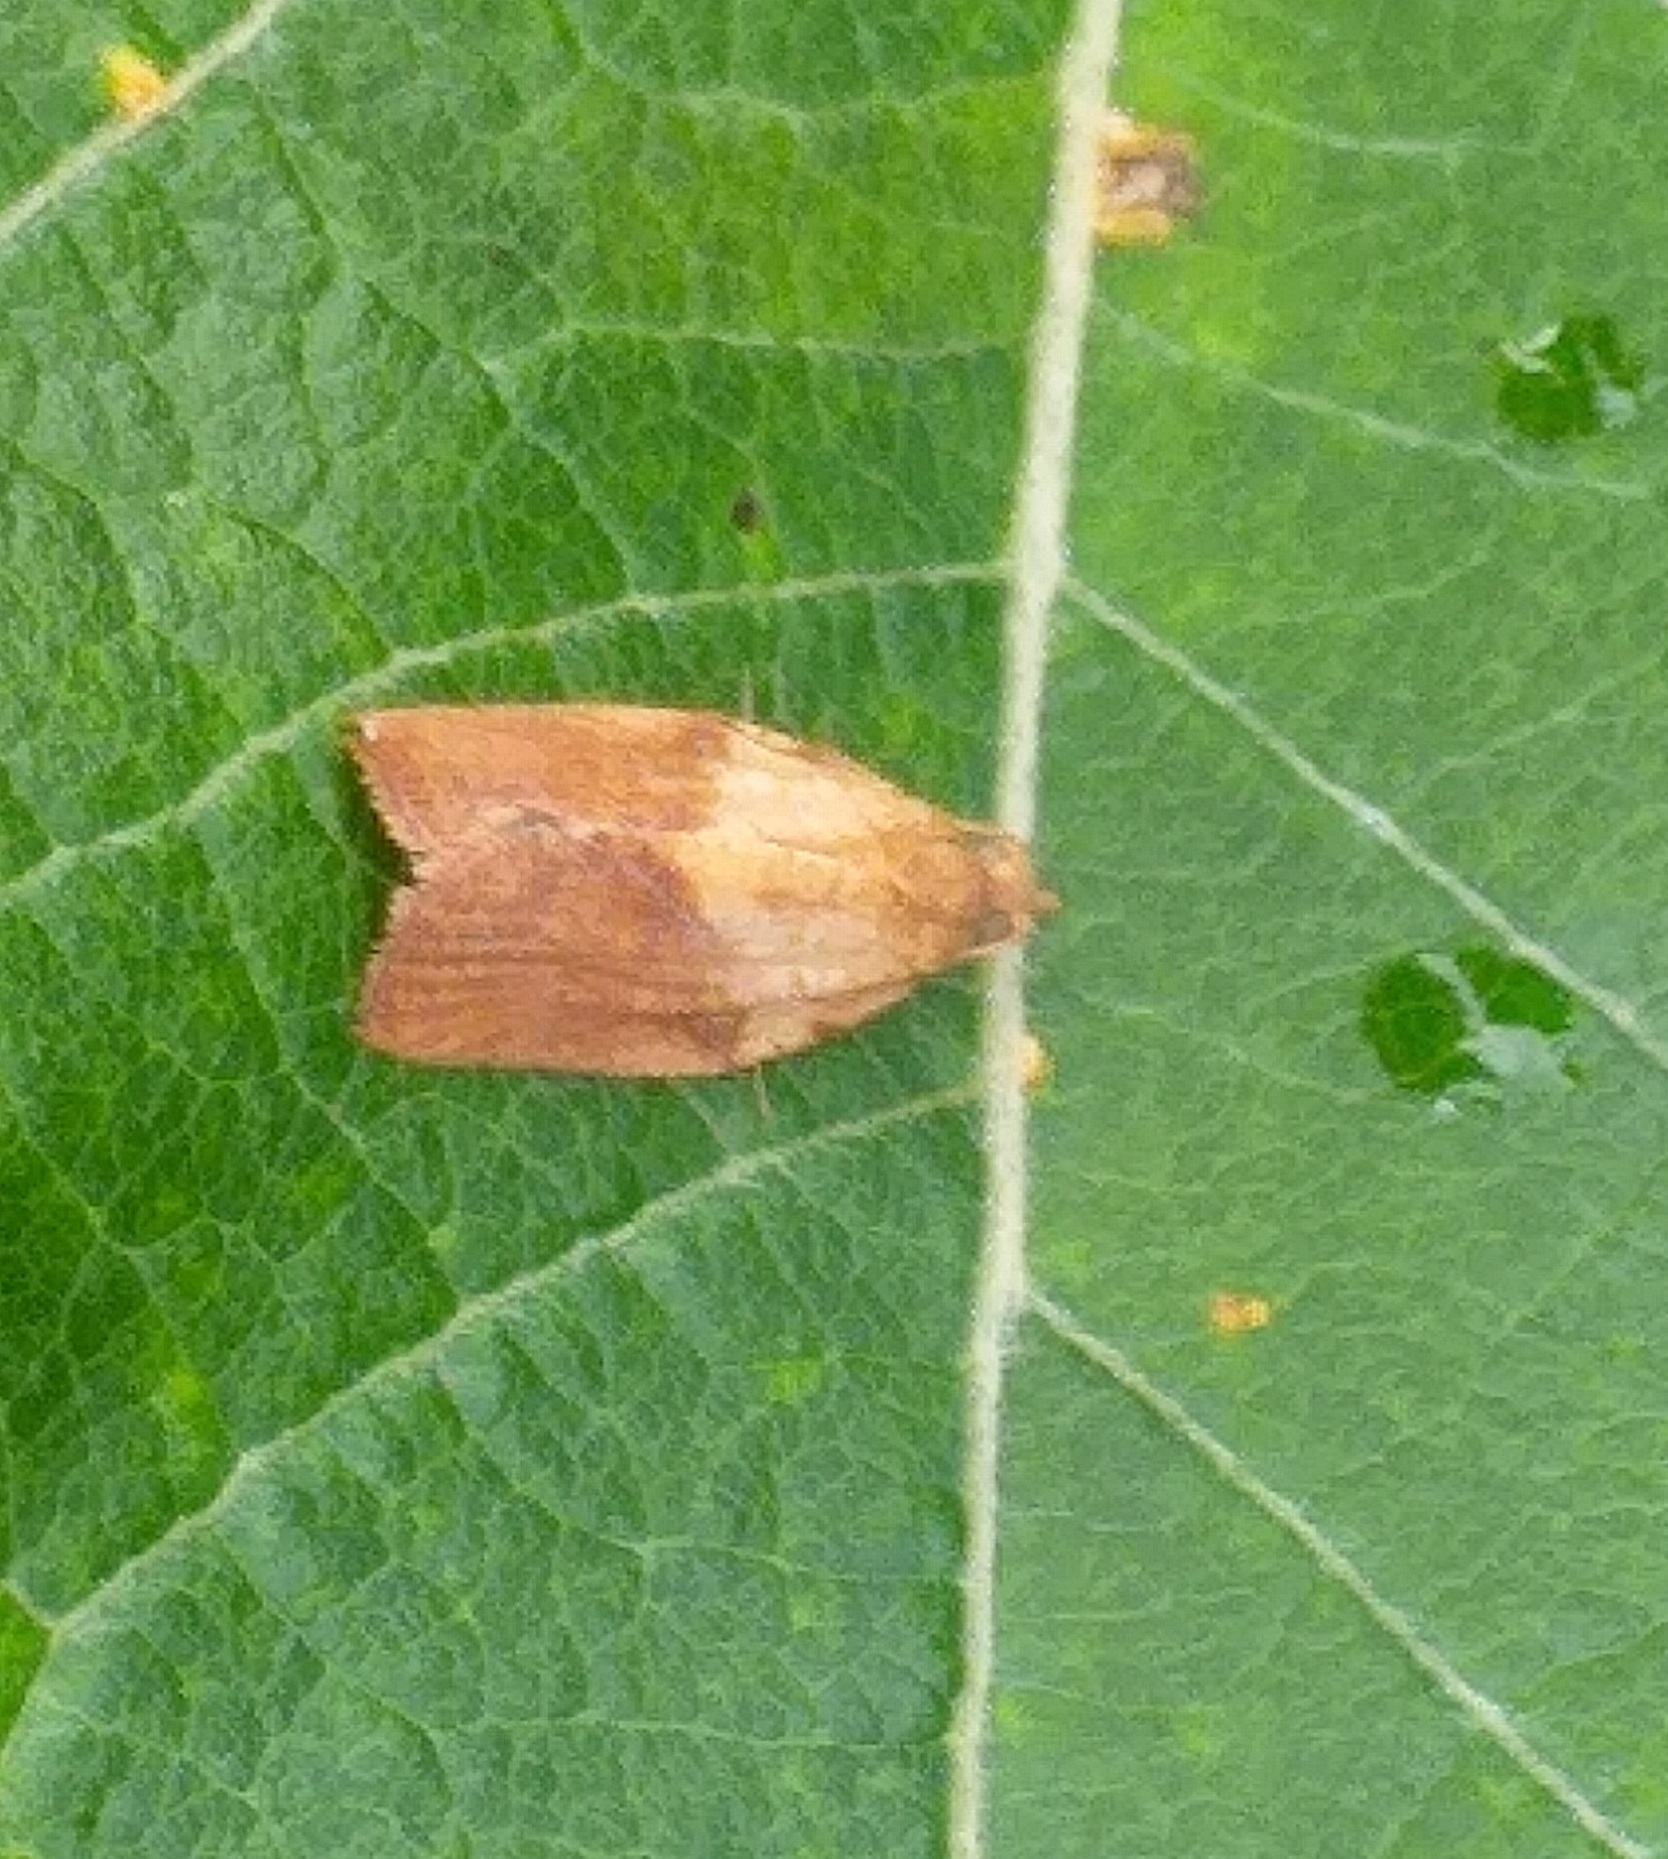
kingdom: Animalia
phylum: Arthropoda
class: Insecta
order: Lepidoptera
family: Tortricidae
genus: Epiphyas
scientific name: Epiphyas postvittana
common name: Light brown apple moth
